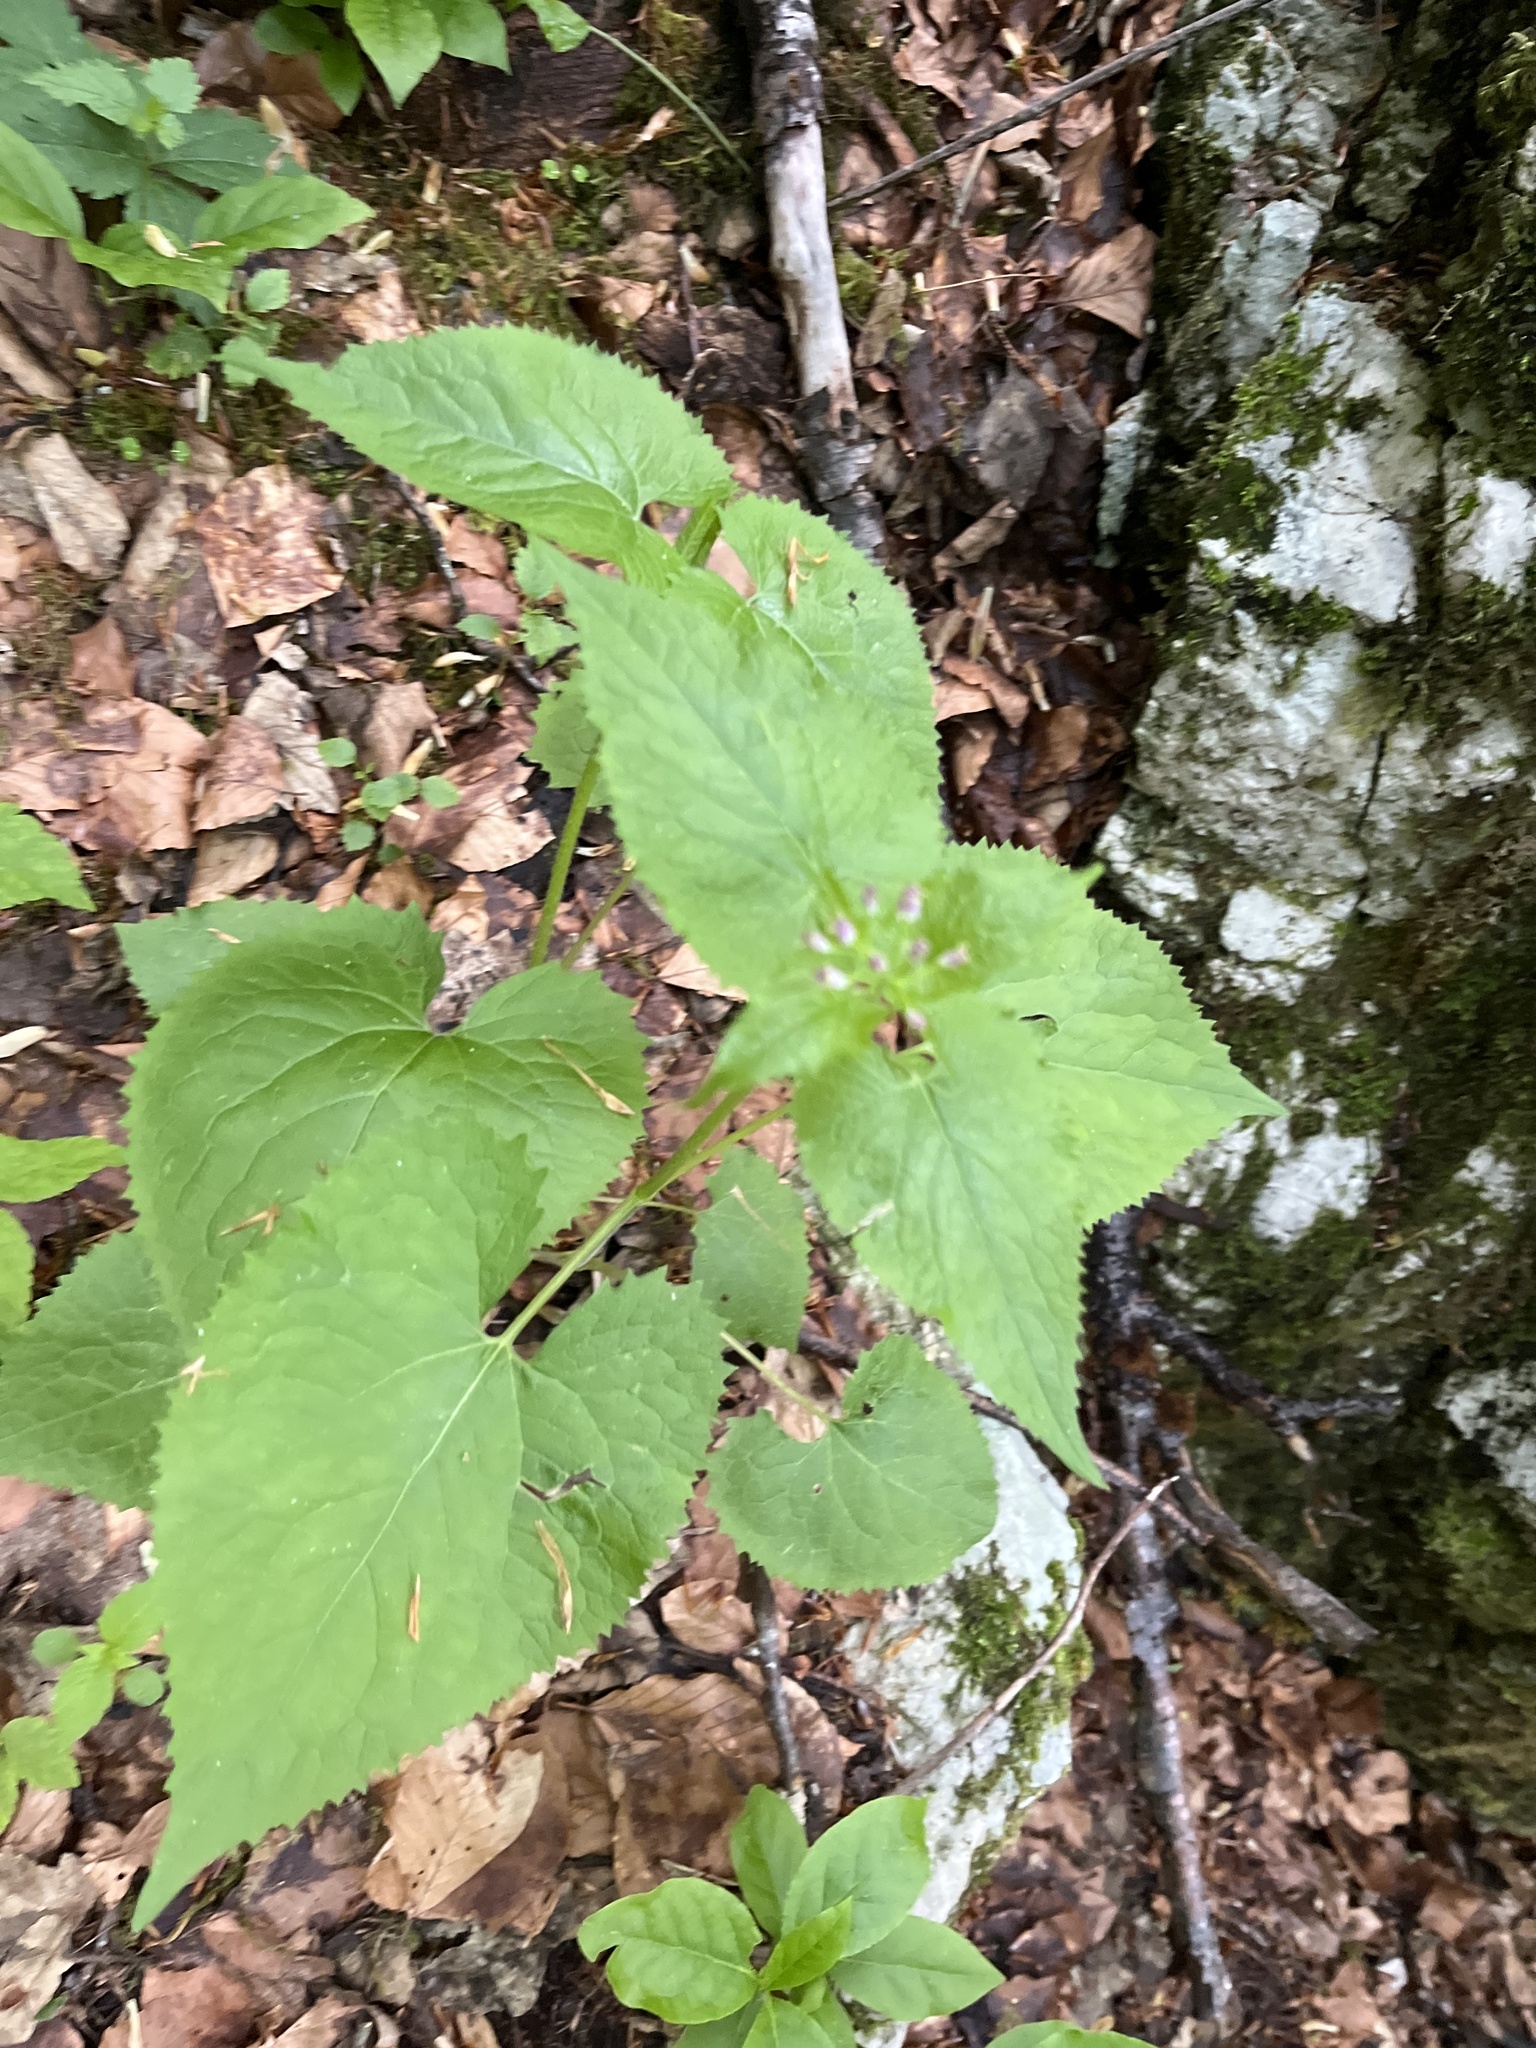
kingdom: Plantae
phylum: Tracheophyta
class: Magnoliopsida
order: Brassicales
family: Brassicaceae
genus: Lunaria
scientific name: Lunaria rediviva
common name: Perennial honesty
